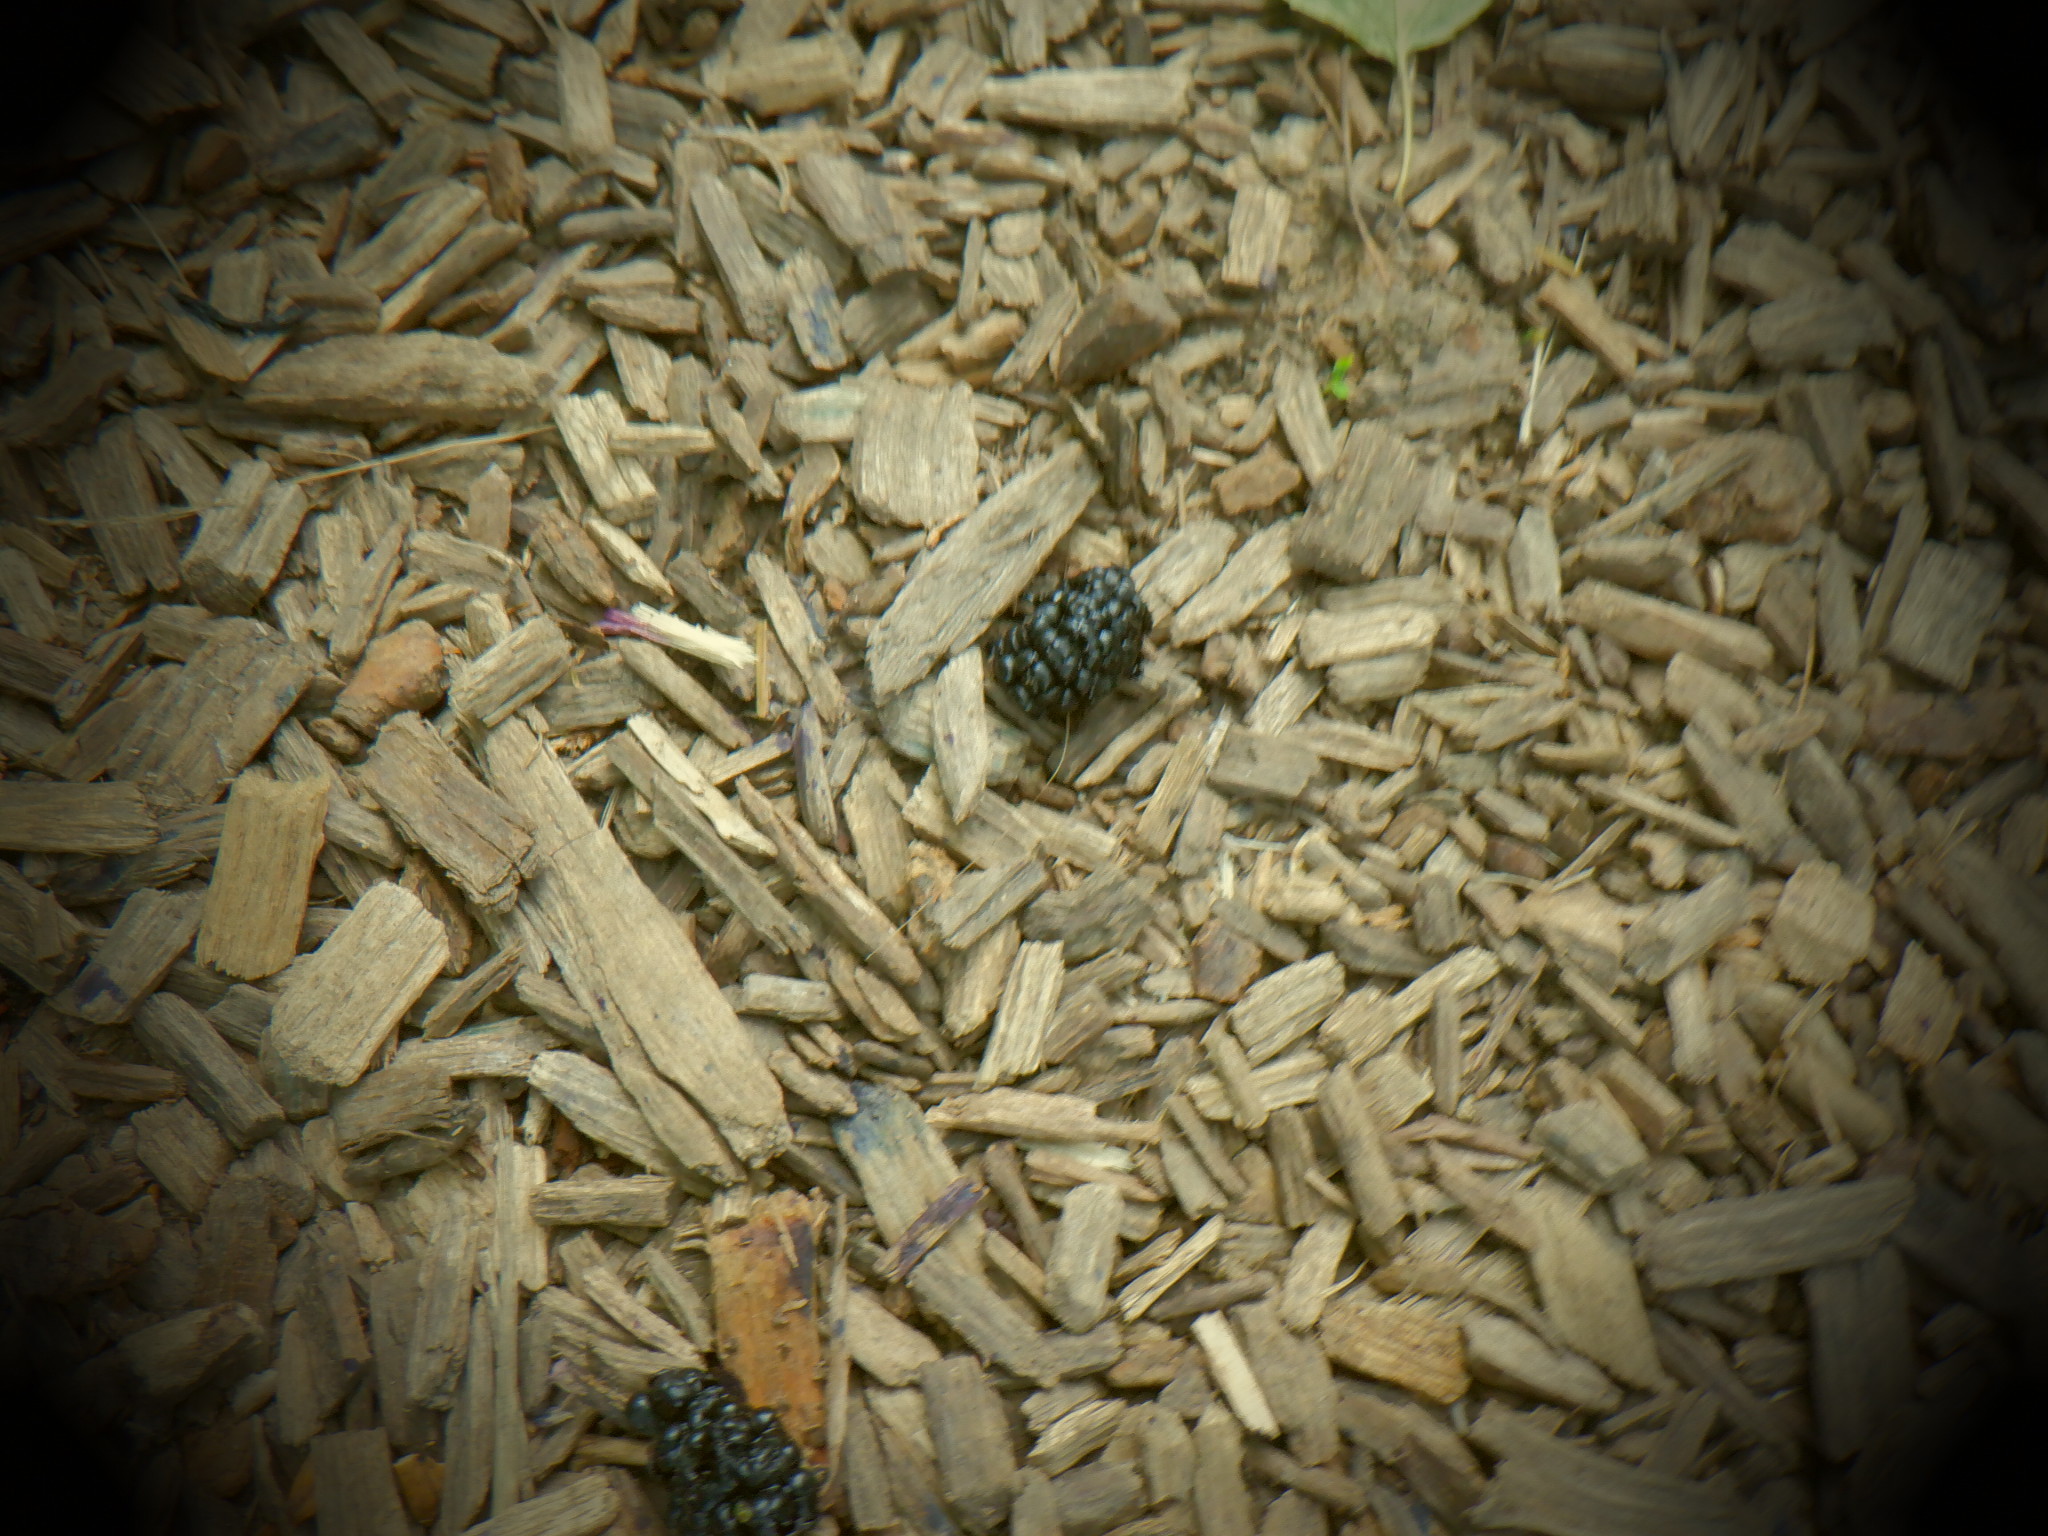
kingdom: Plantae
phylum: Tracheophyta
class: Magnoliopsida
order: Rosales
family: Moraceae
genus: Morus
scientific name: Morus alba
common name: White mulberry
